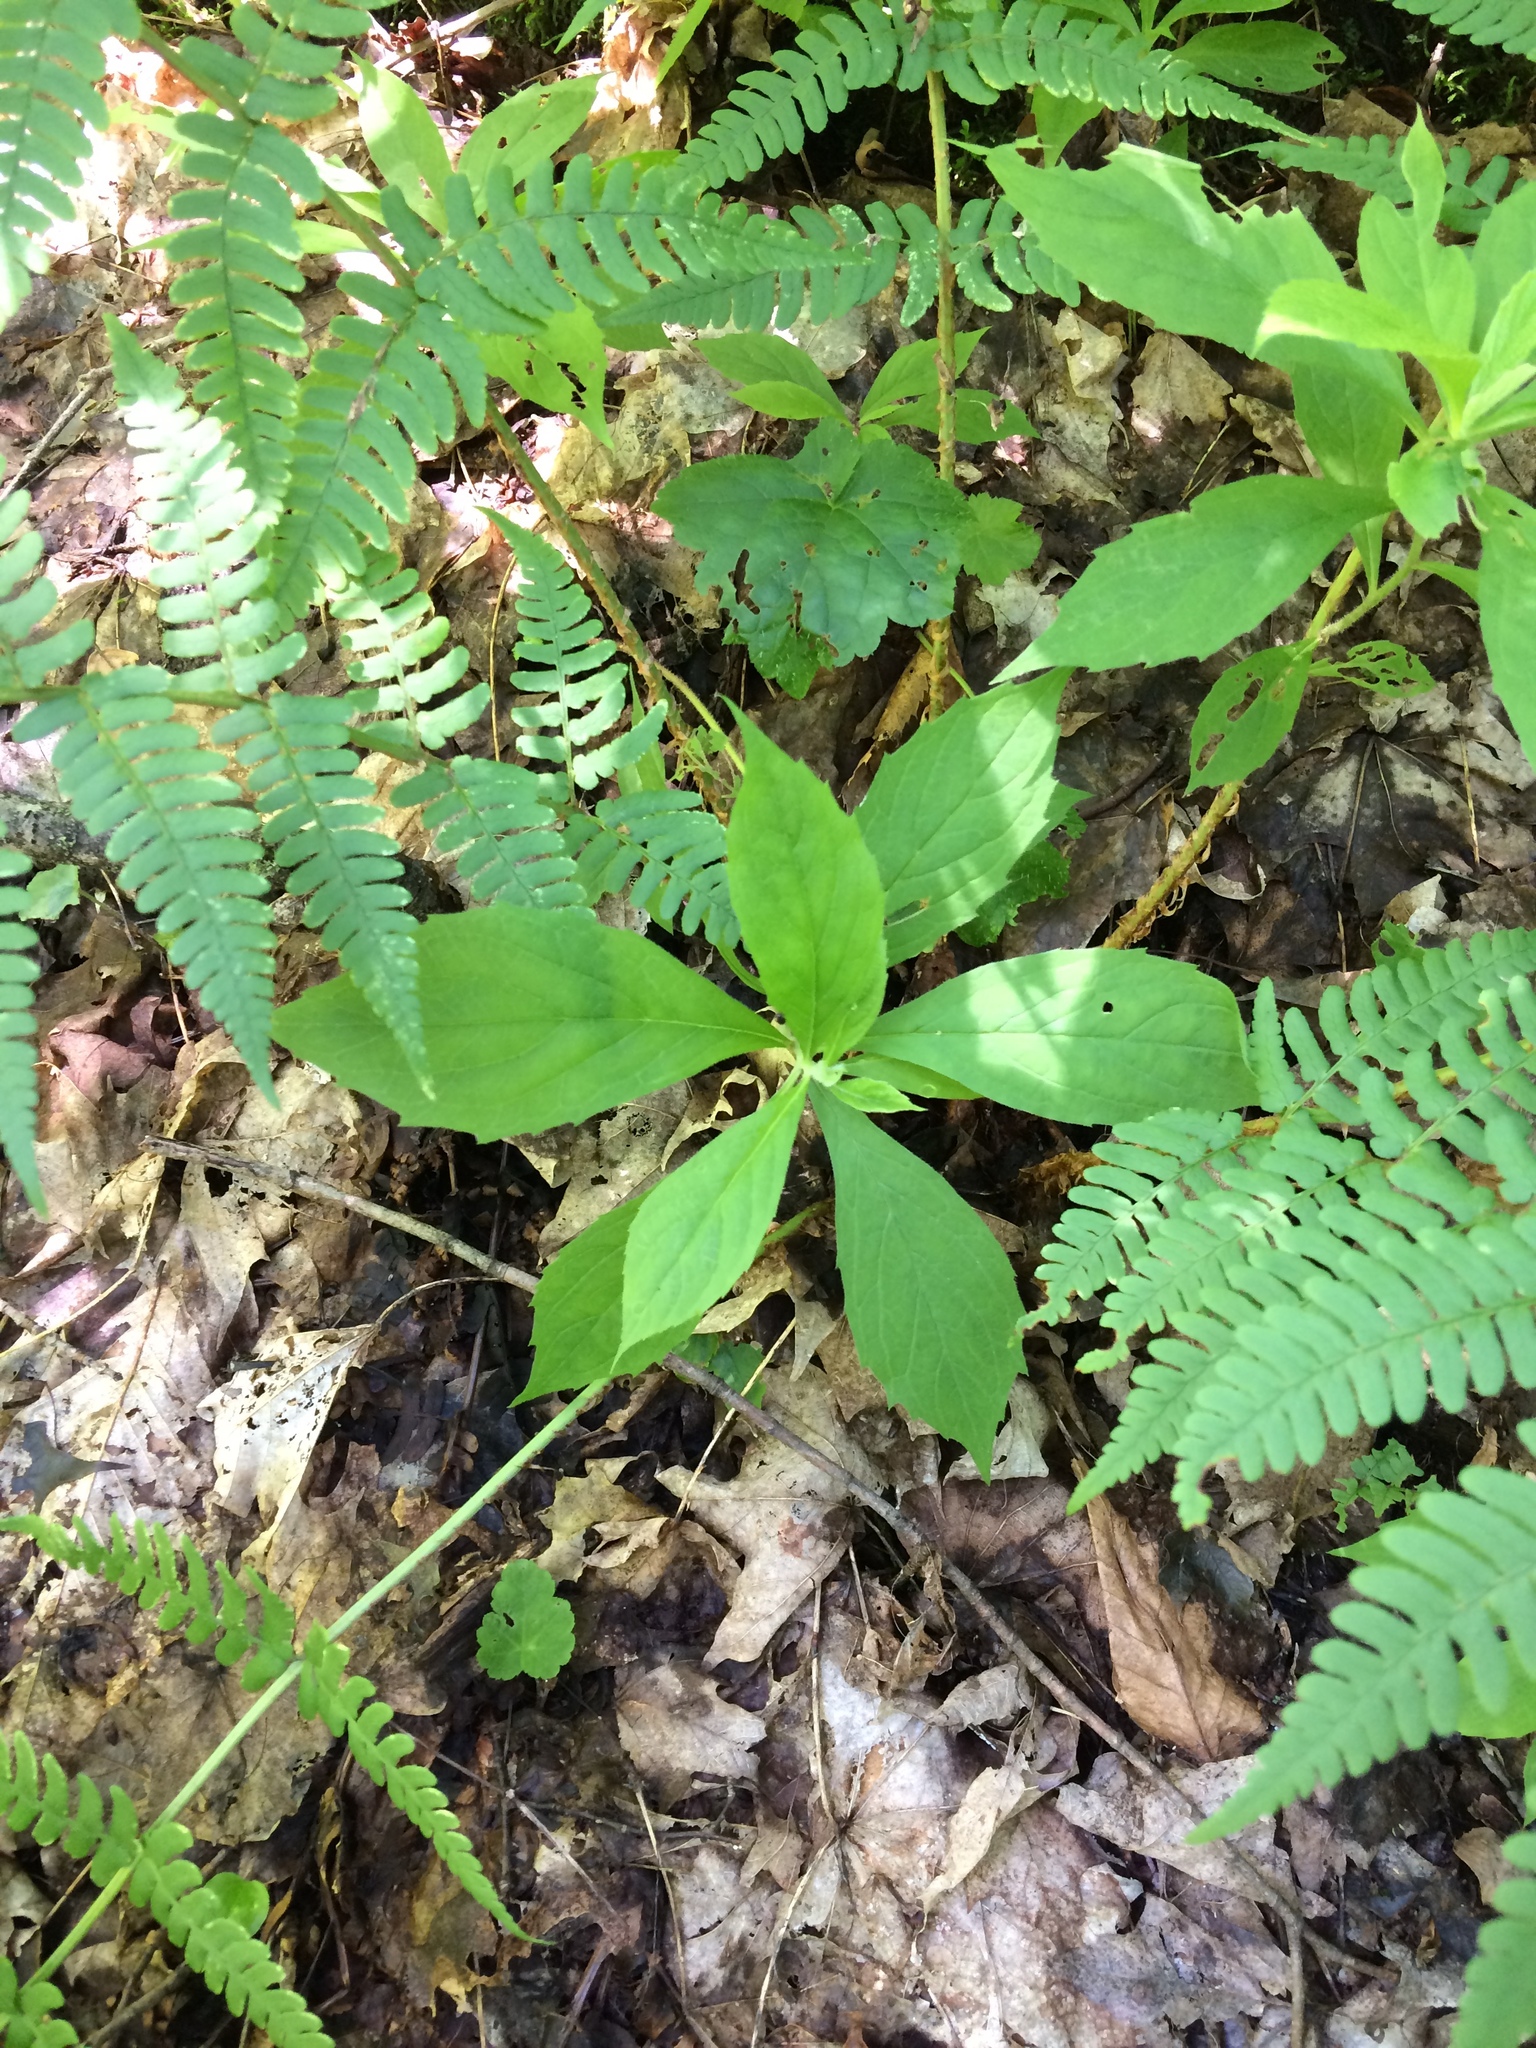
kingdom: Plantae
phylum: Tracheophyta
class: Magnoliopsida
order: Asterales
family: Asteraceae
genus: Oclemena
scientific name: Oclemena acuminata
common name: Mountain aster
